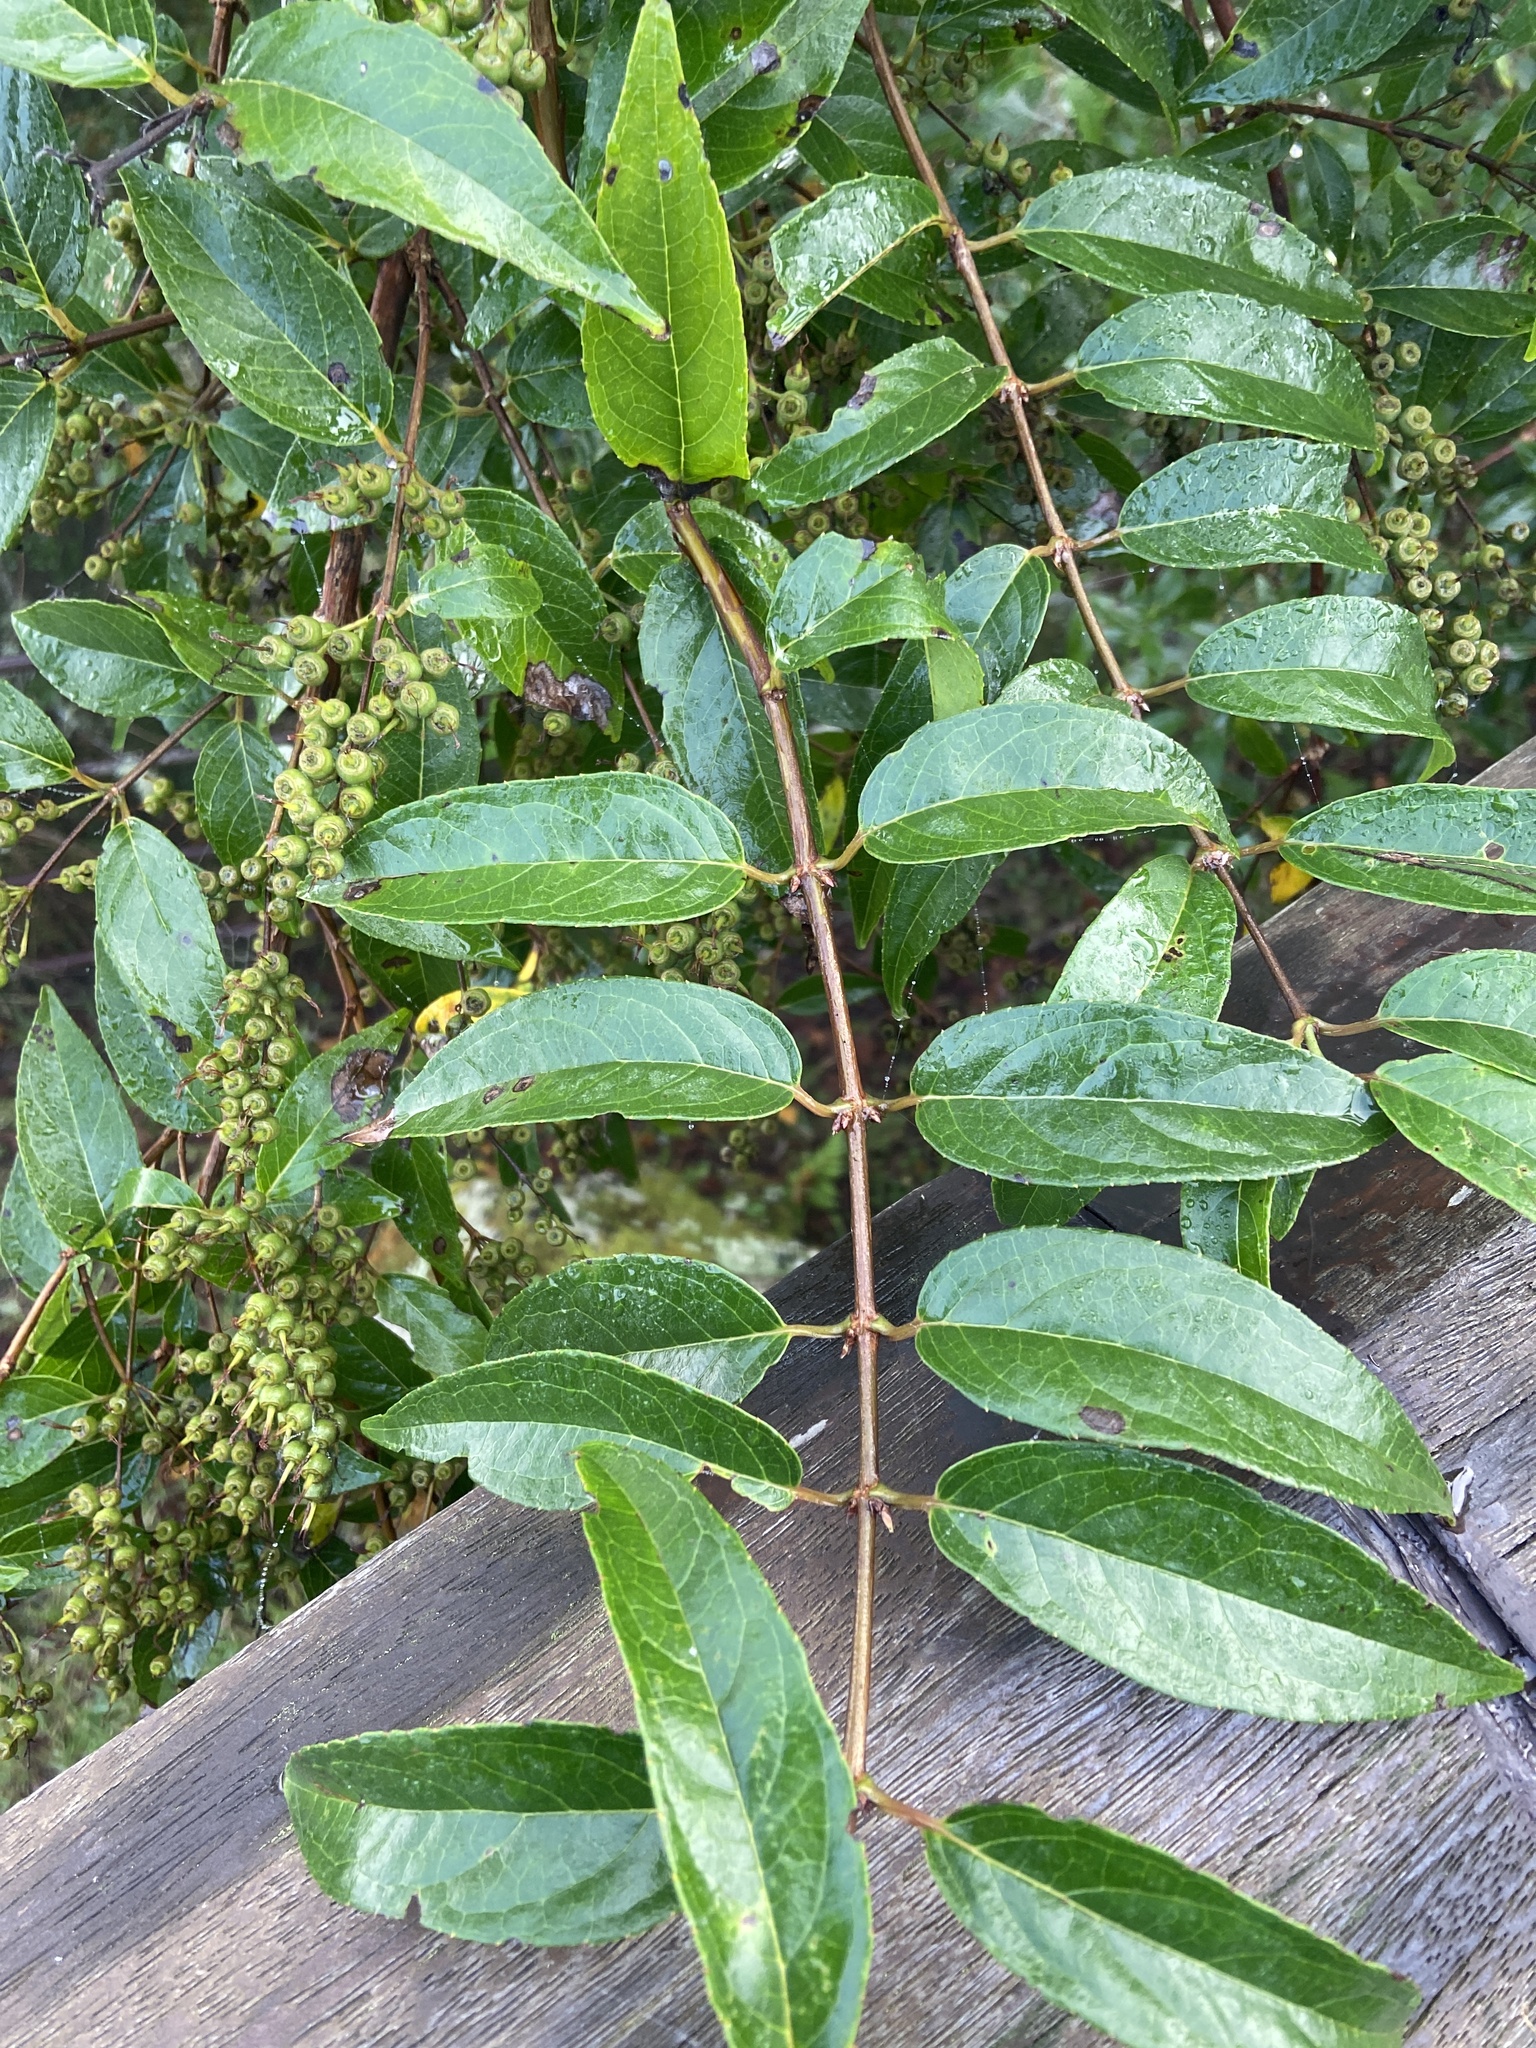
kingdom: Plantae
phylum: Tracheophyta
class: Magnoliopsida
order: Cornales
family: Hydrangeaceae
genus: Deutzia
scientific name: Deutzia pulchra
